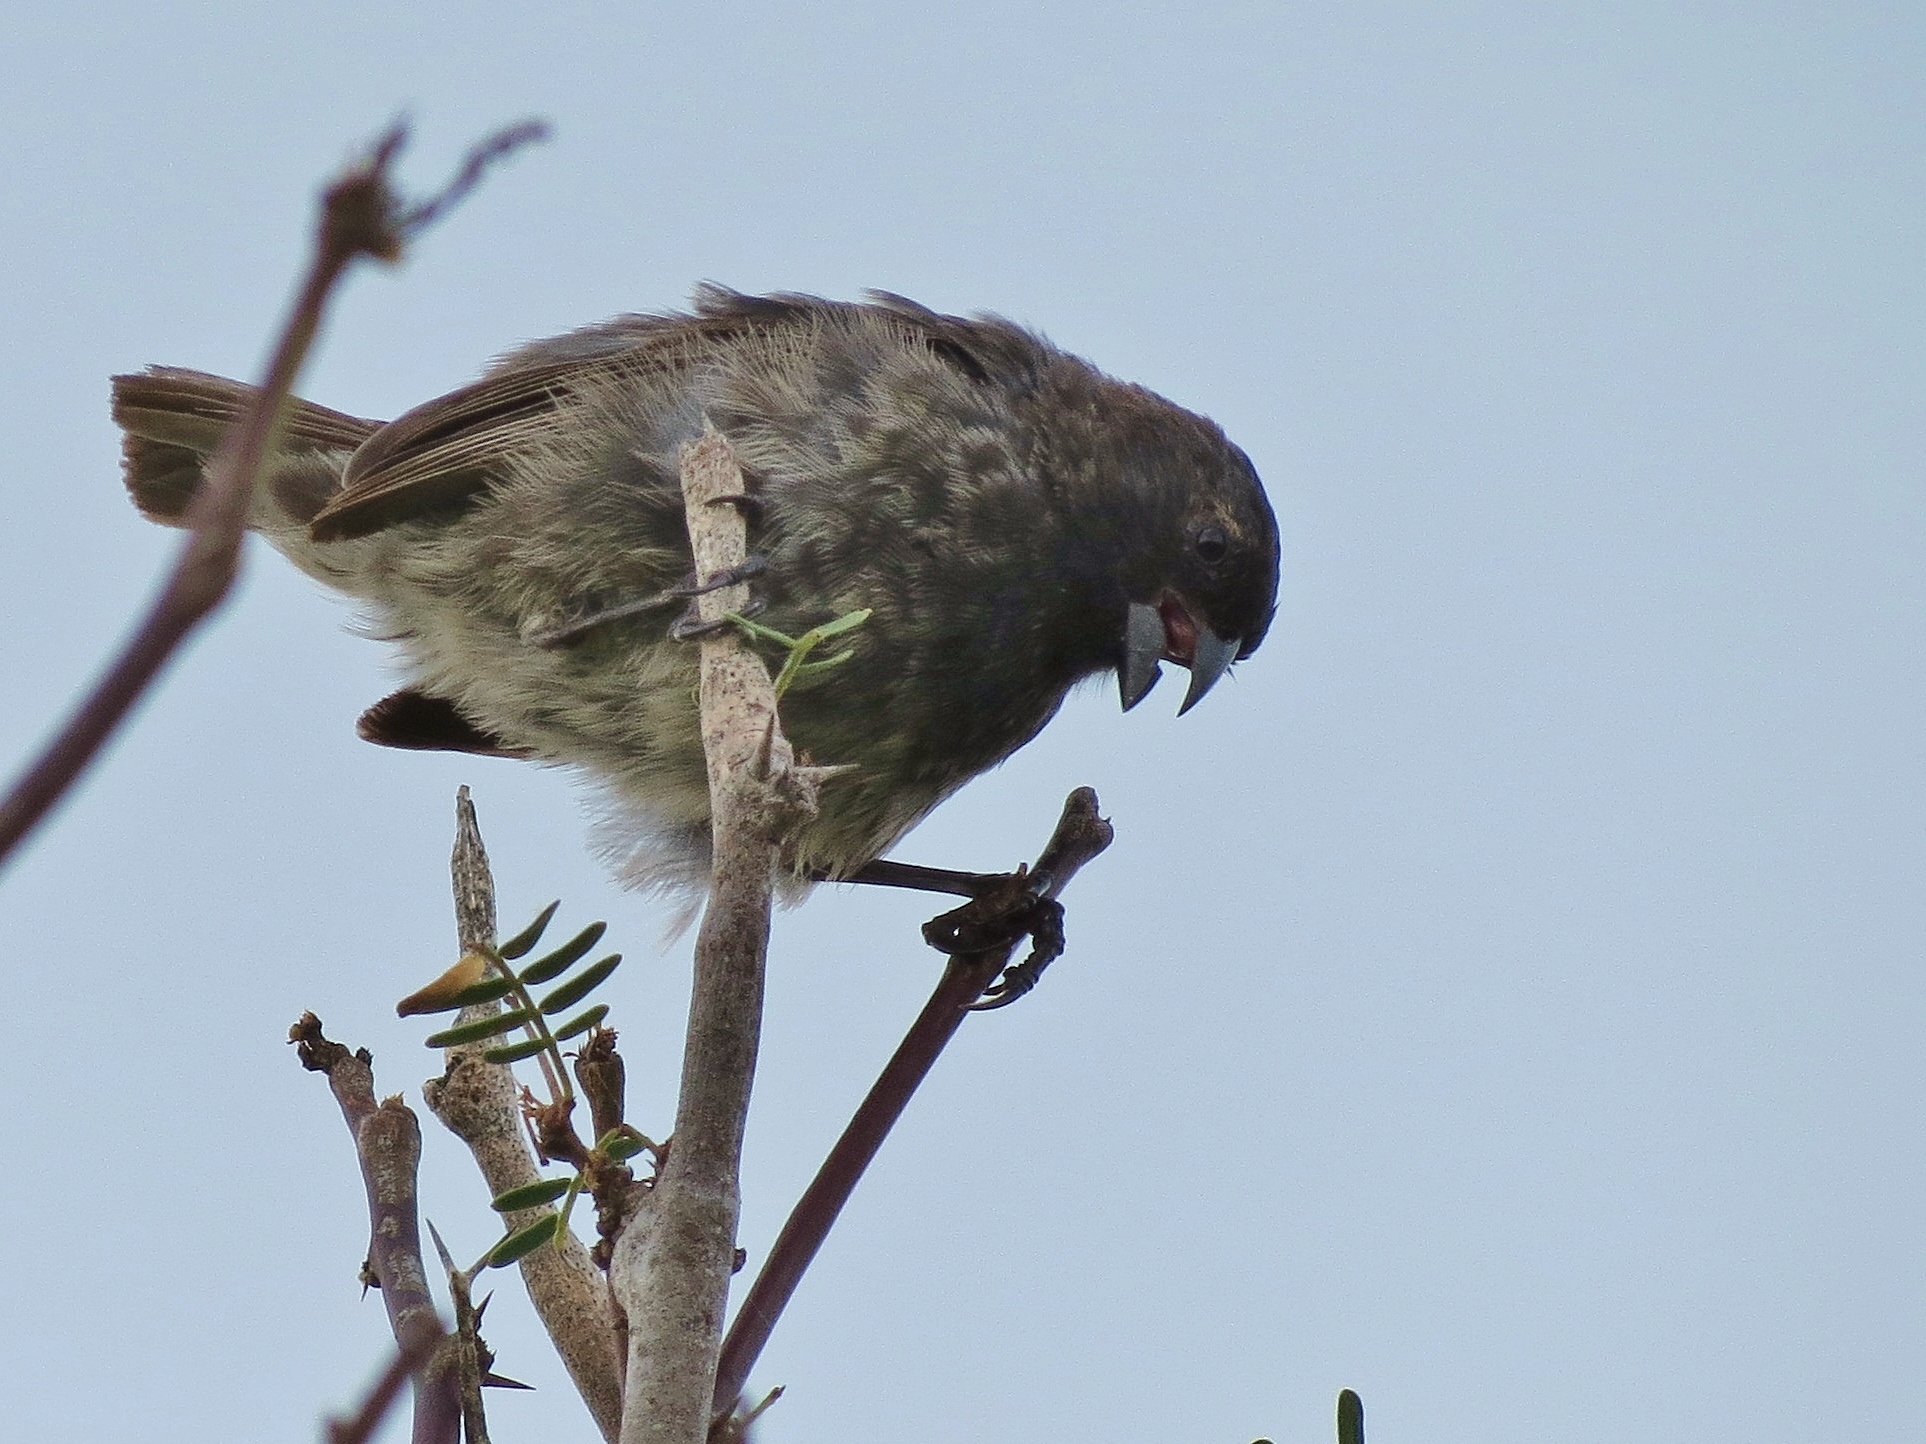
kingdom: Animalia
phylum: Chordata
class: Aves
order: Passeriformes
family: Thraupidae
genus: Geospiza
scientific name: Geospiza fuliginosa
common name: Small ground finch
